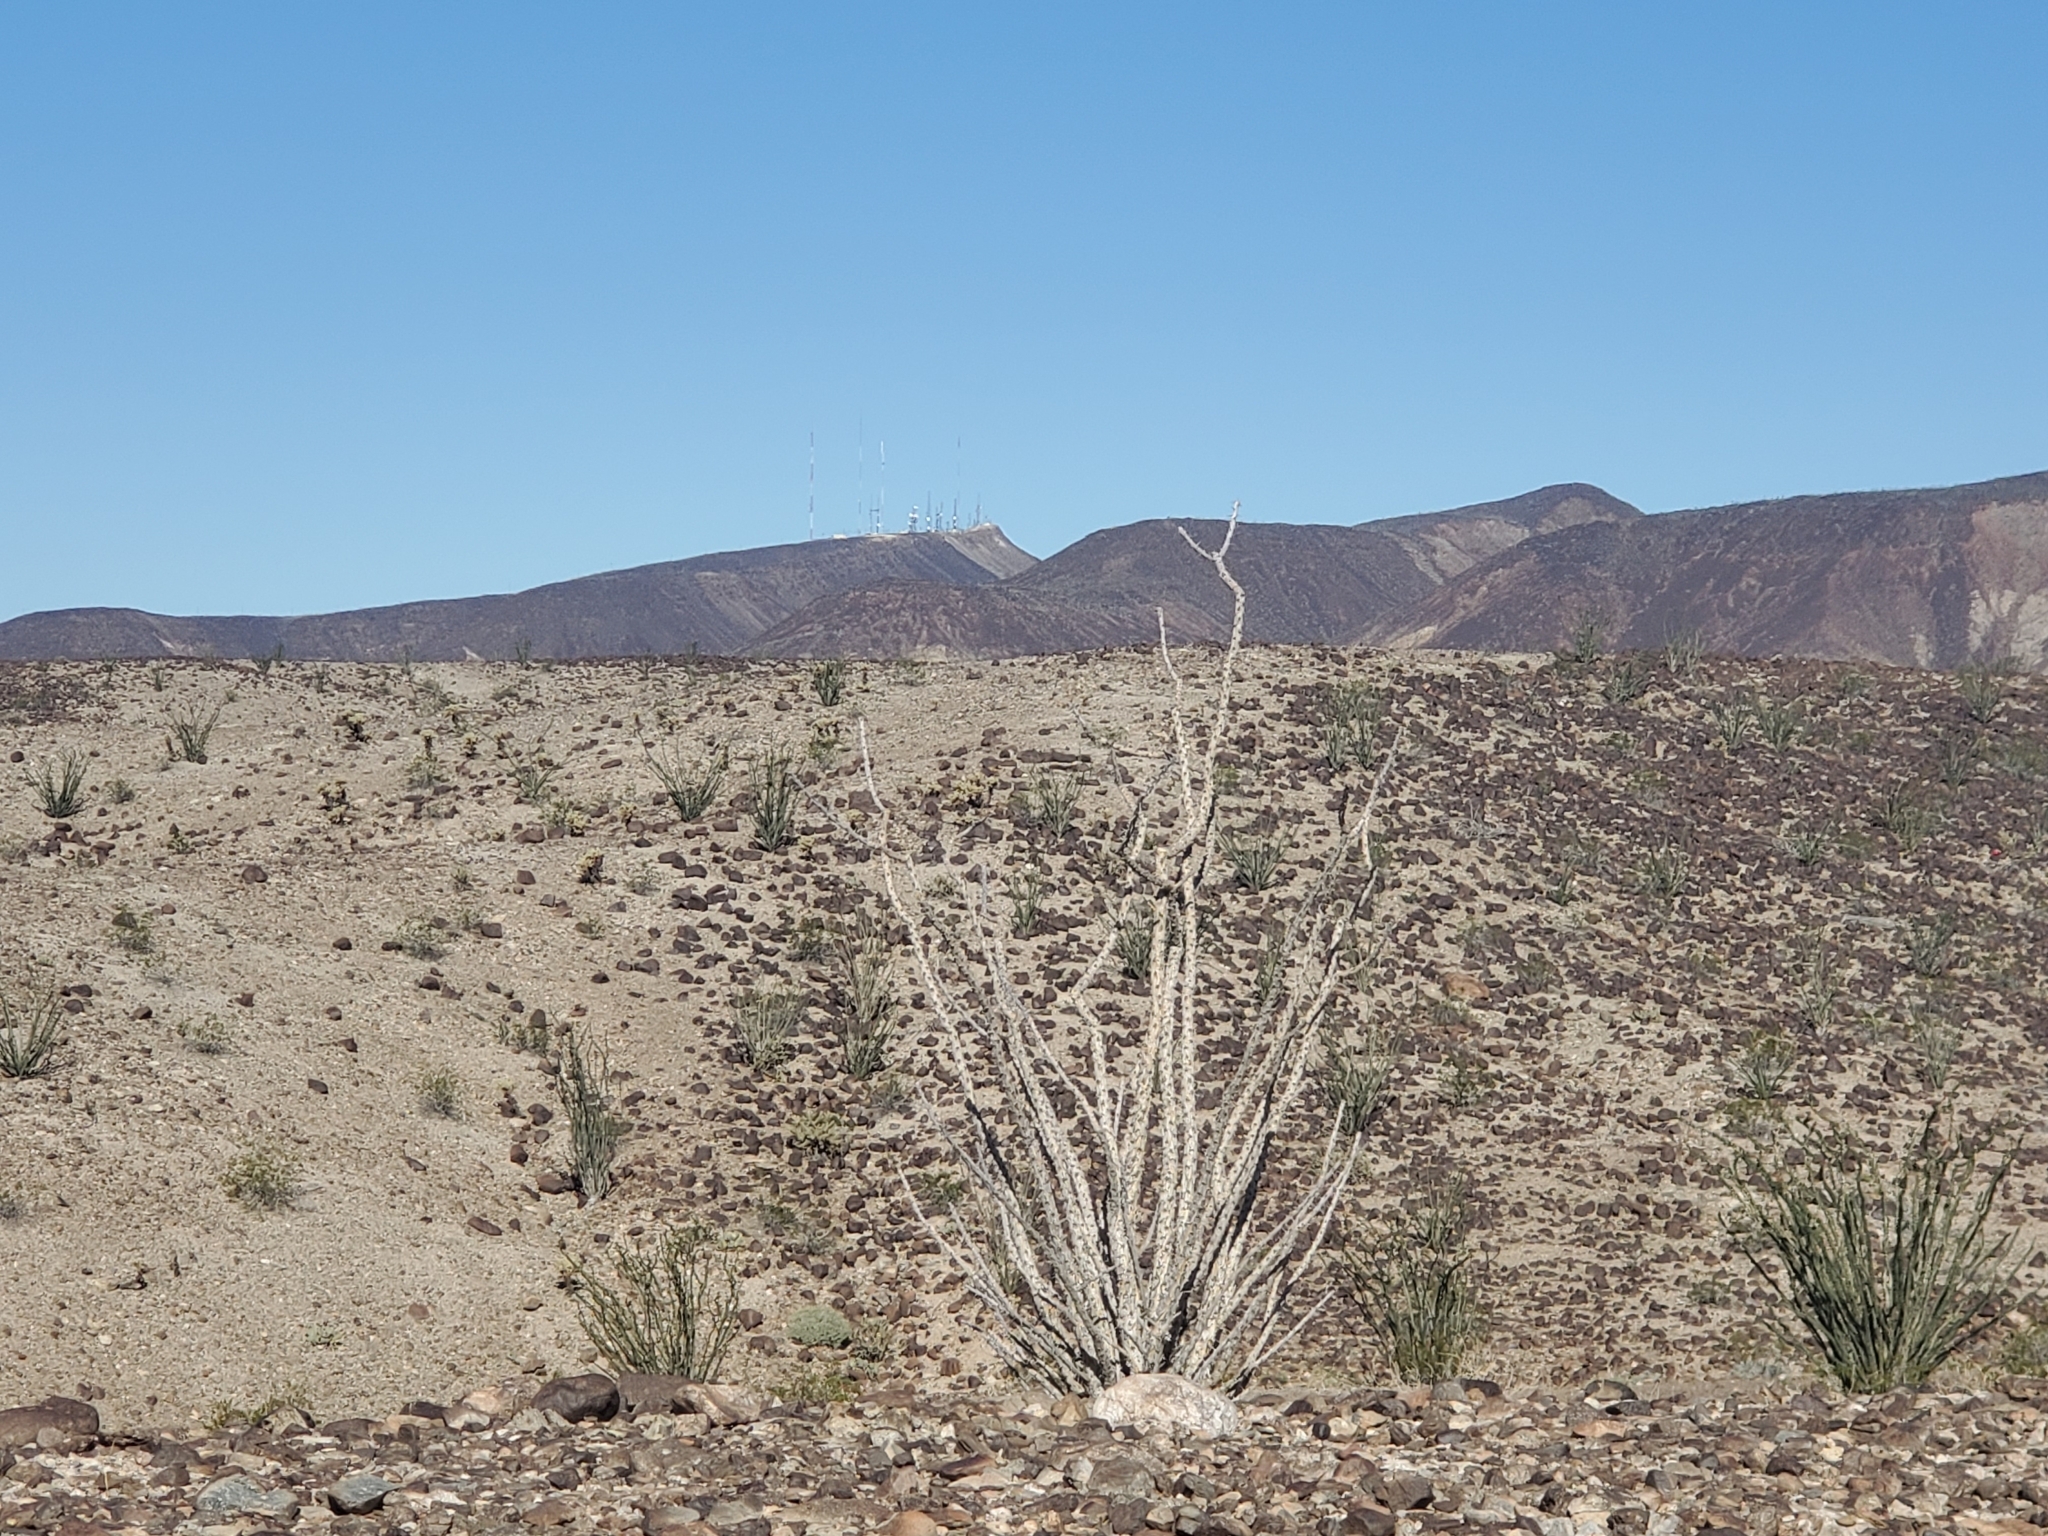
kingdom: Plantae
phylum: Tracheophyta
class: Magnoliopsida
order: Ericales
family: Fouquieriaceae
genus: Fouquieria
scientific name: Fouquieria splendens
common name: Vine-cactus
